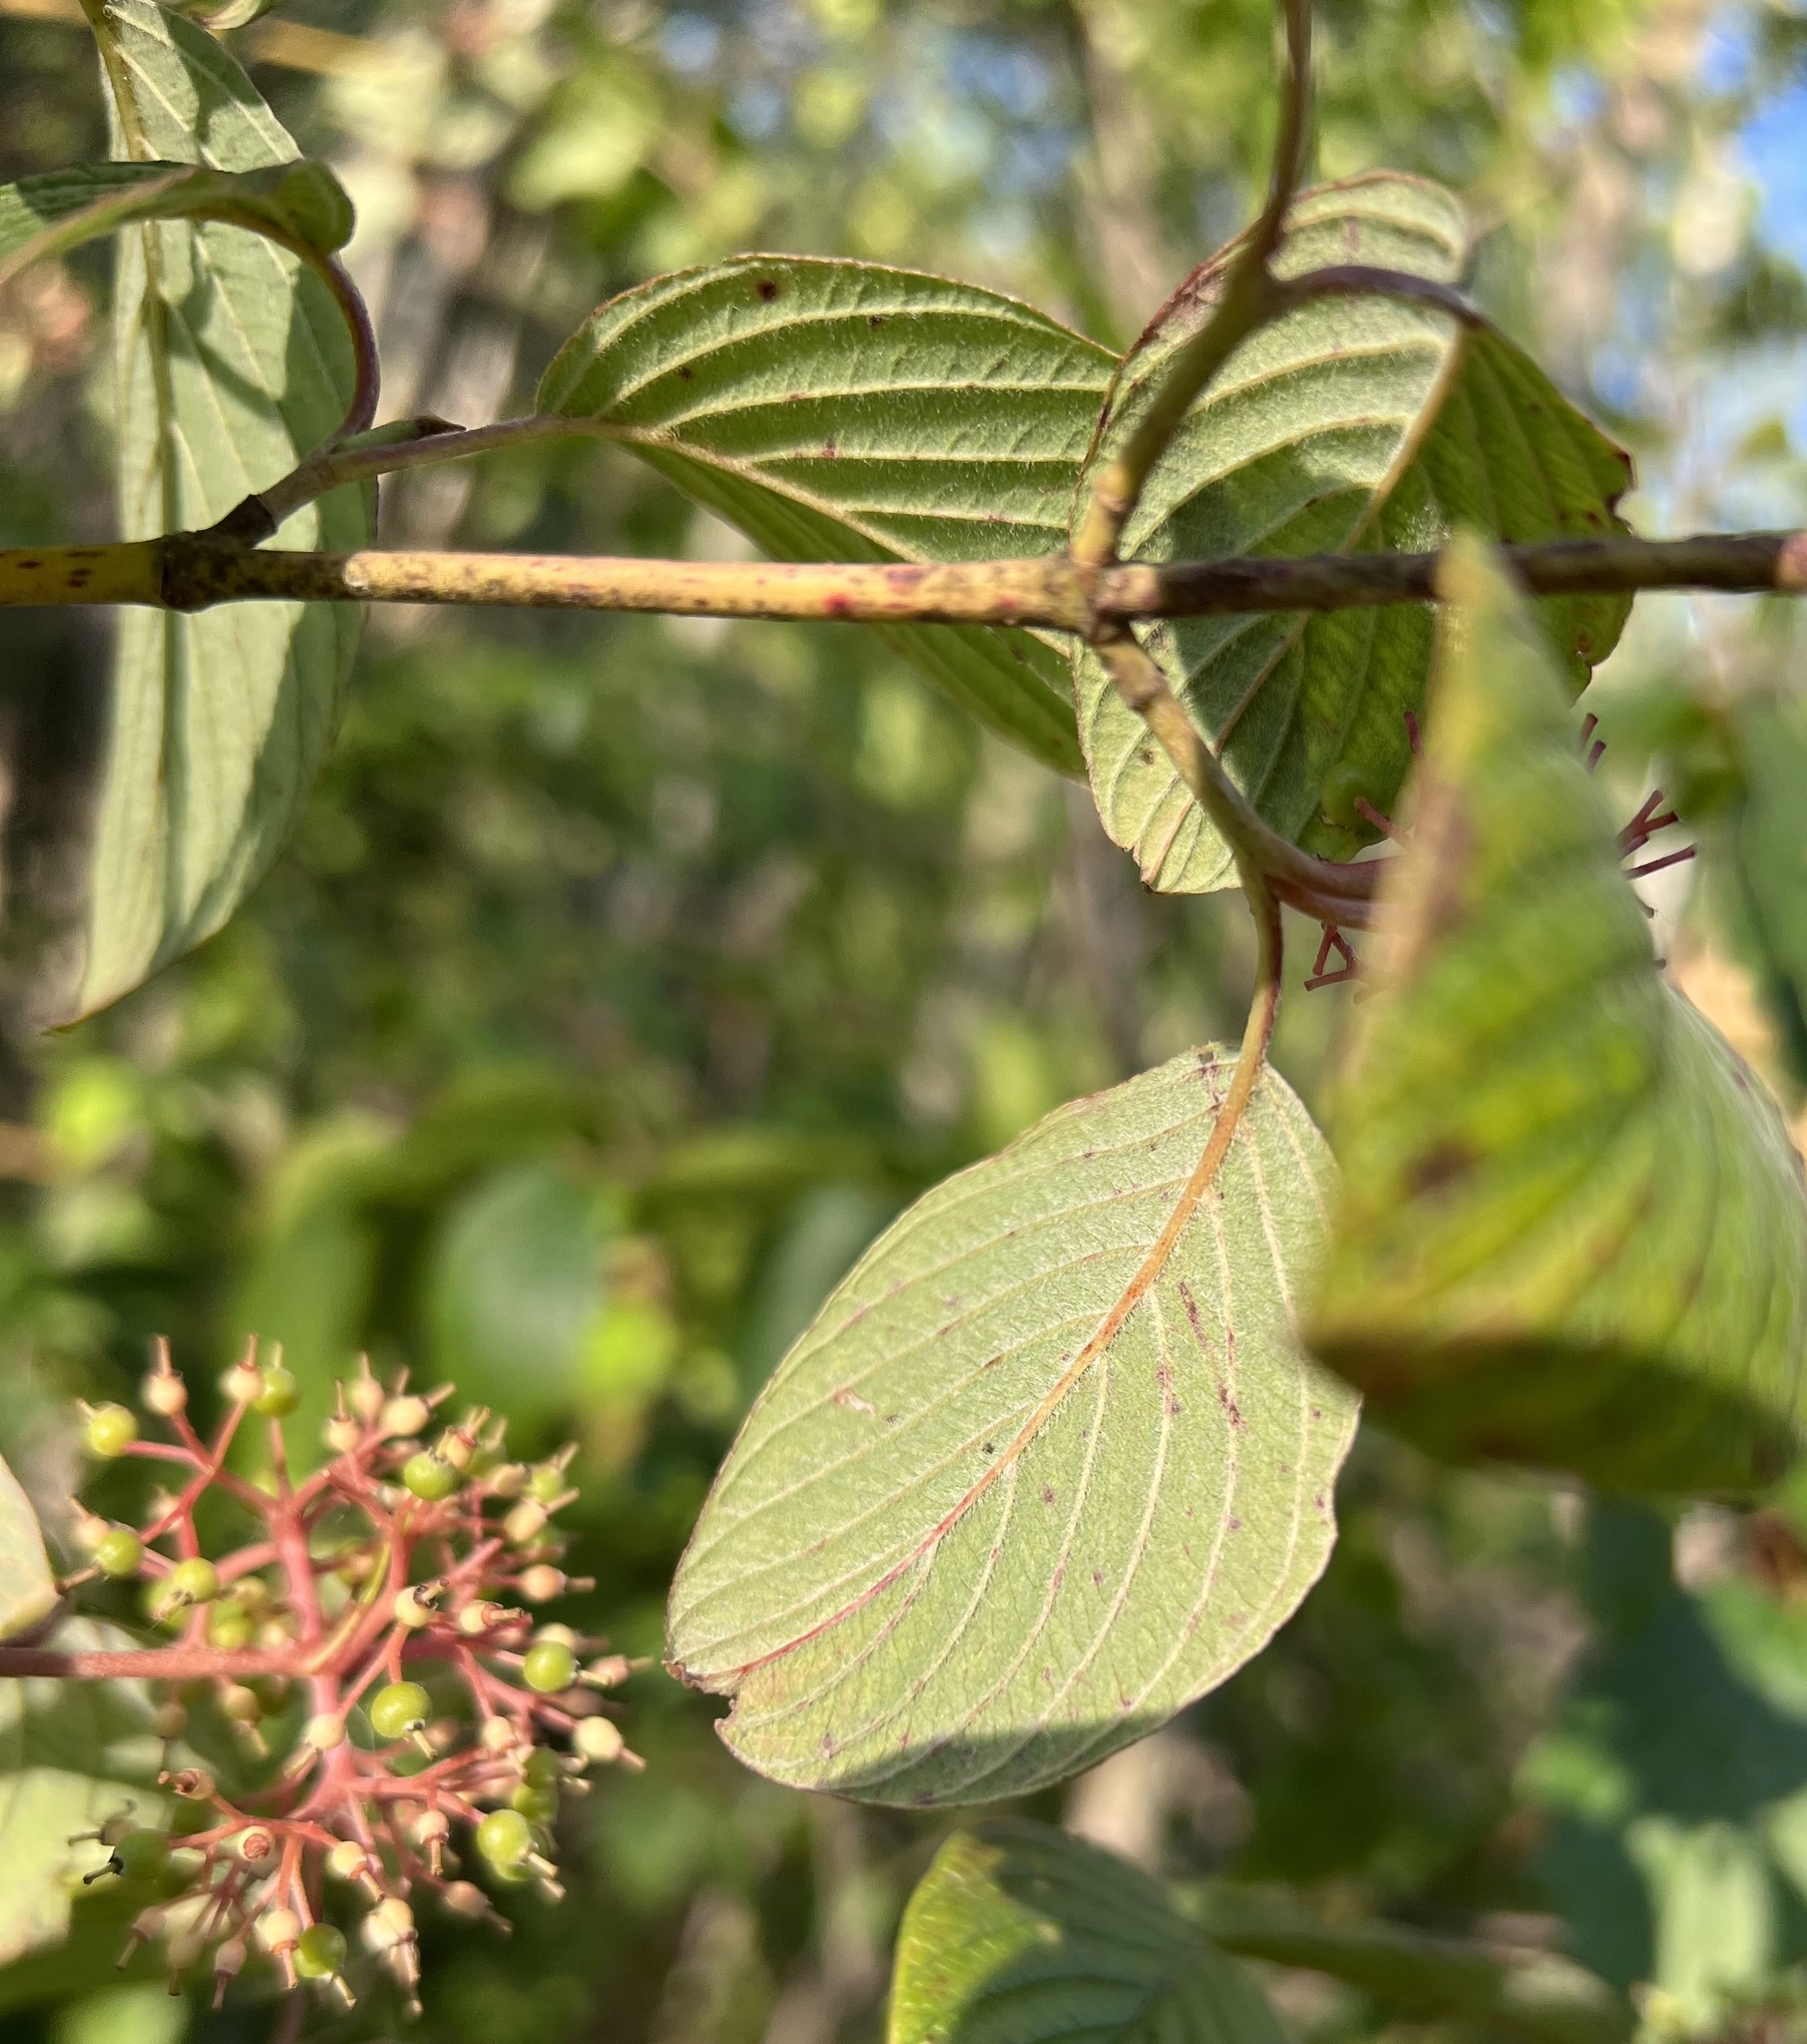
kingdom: Plantae
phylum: Tracheophyta
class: Magnoliopsida
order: Cornales
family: Cornaceae
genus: Cornus
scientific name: Cornus rugosa
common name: Round-leaf dogwood
